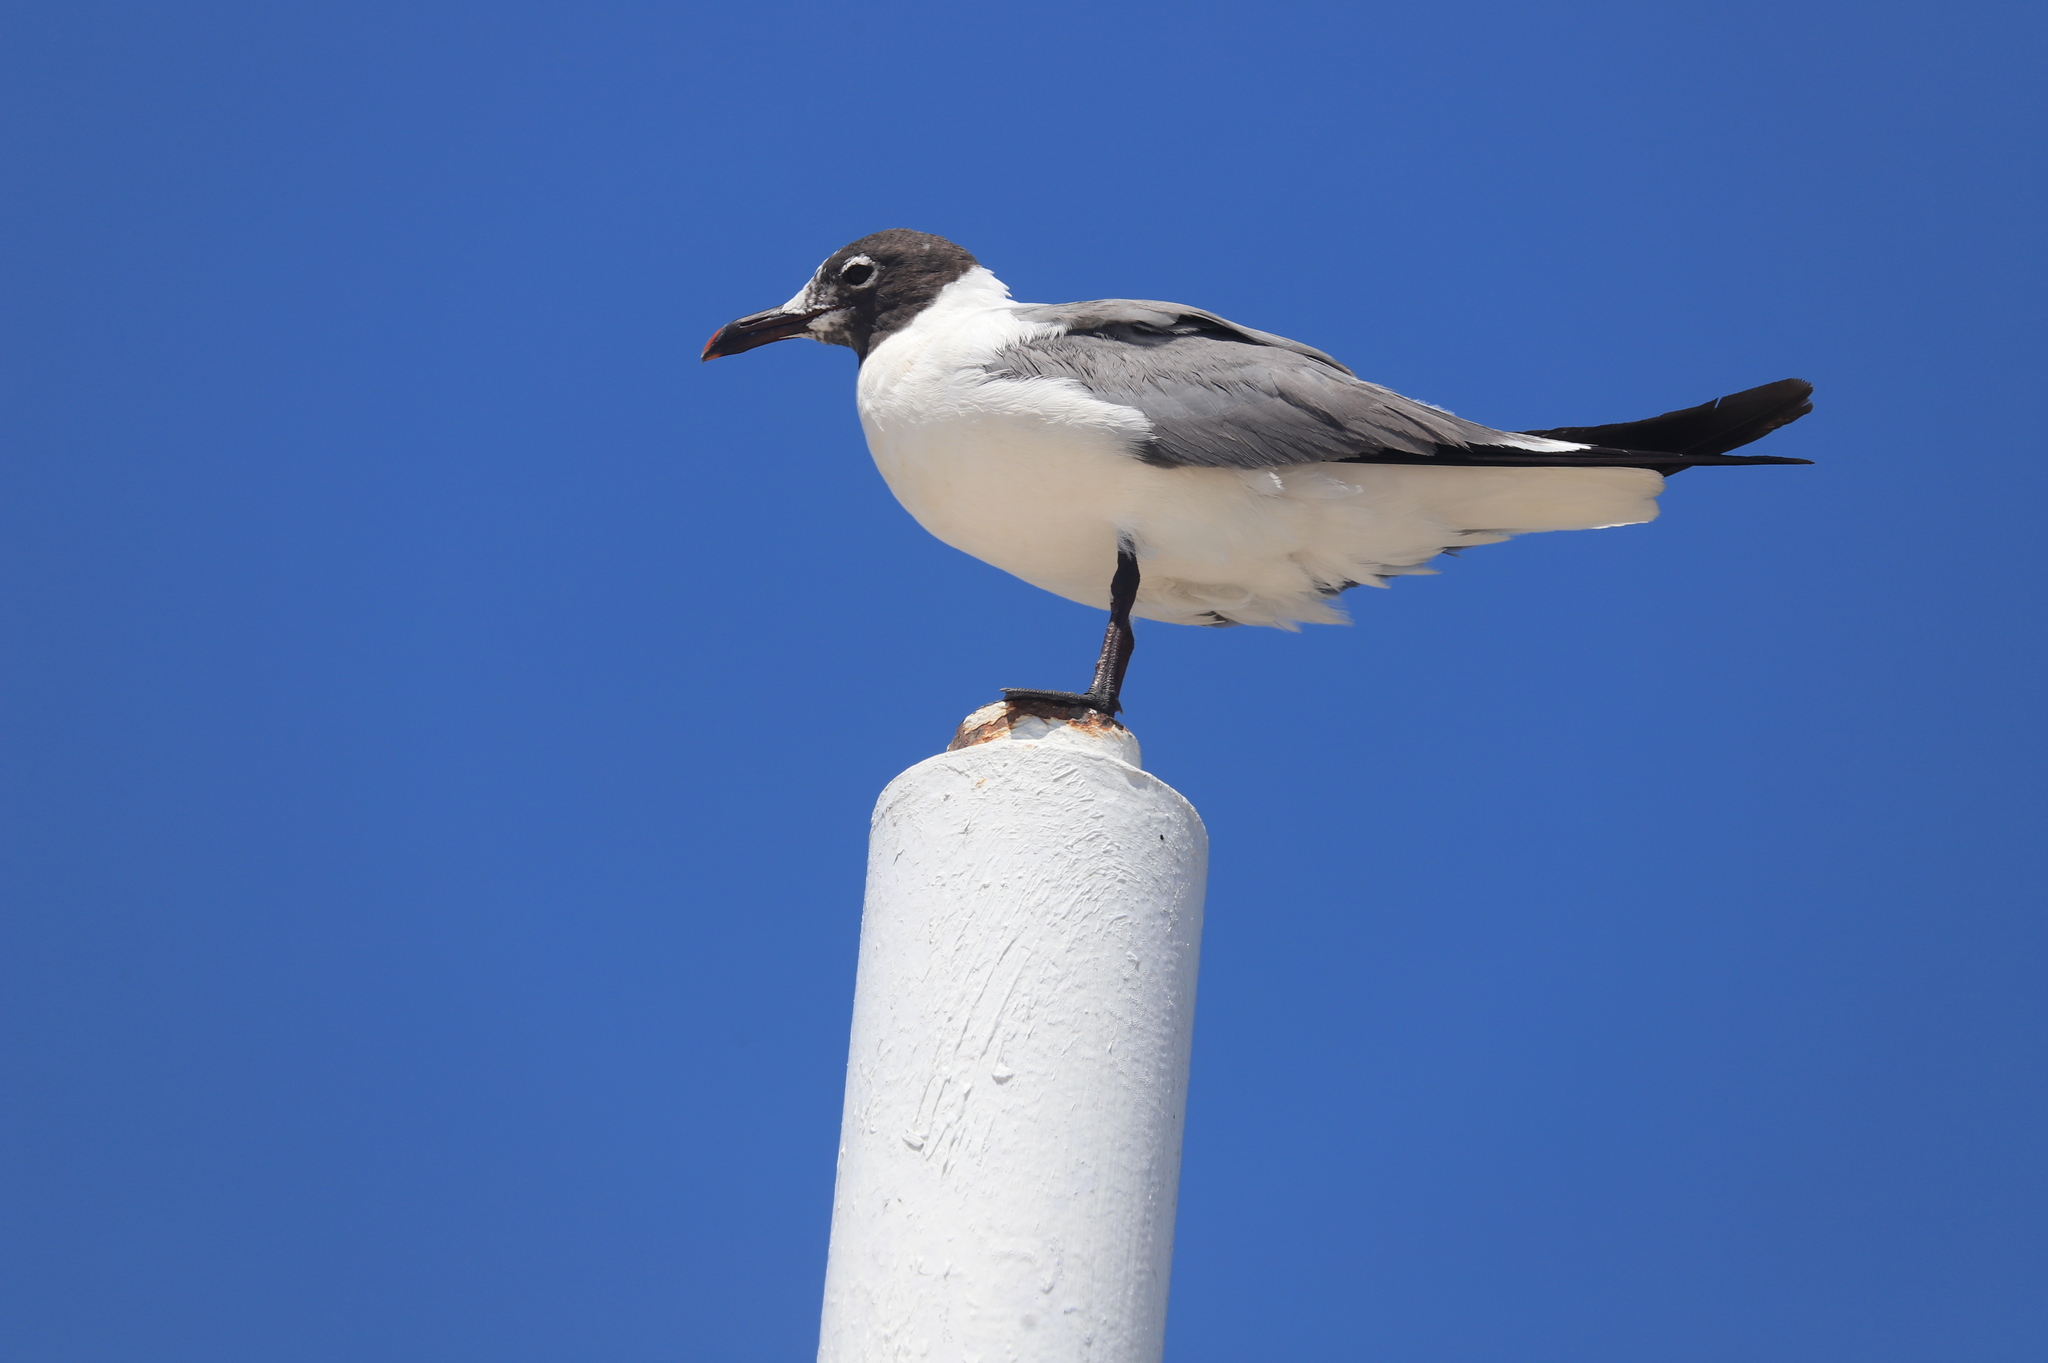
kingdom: Animalia
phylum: Chordata
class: Aves
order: Charadriiformes
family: Laridae
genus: Leucophaeus
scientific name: Leucophaeus atricilla
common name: Laughing gull
